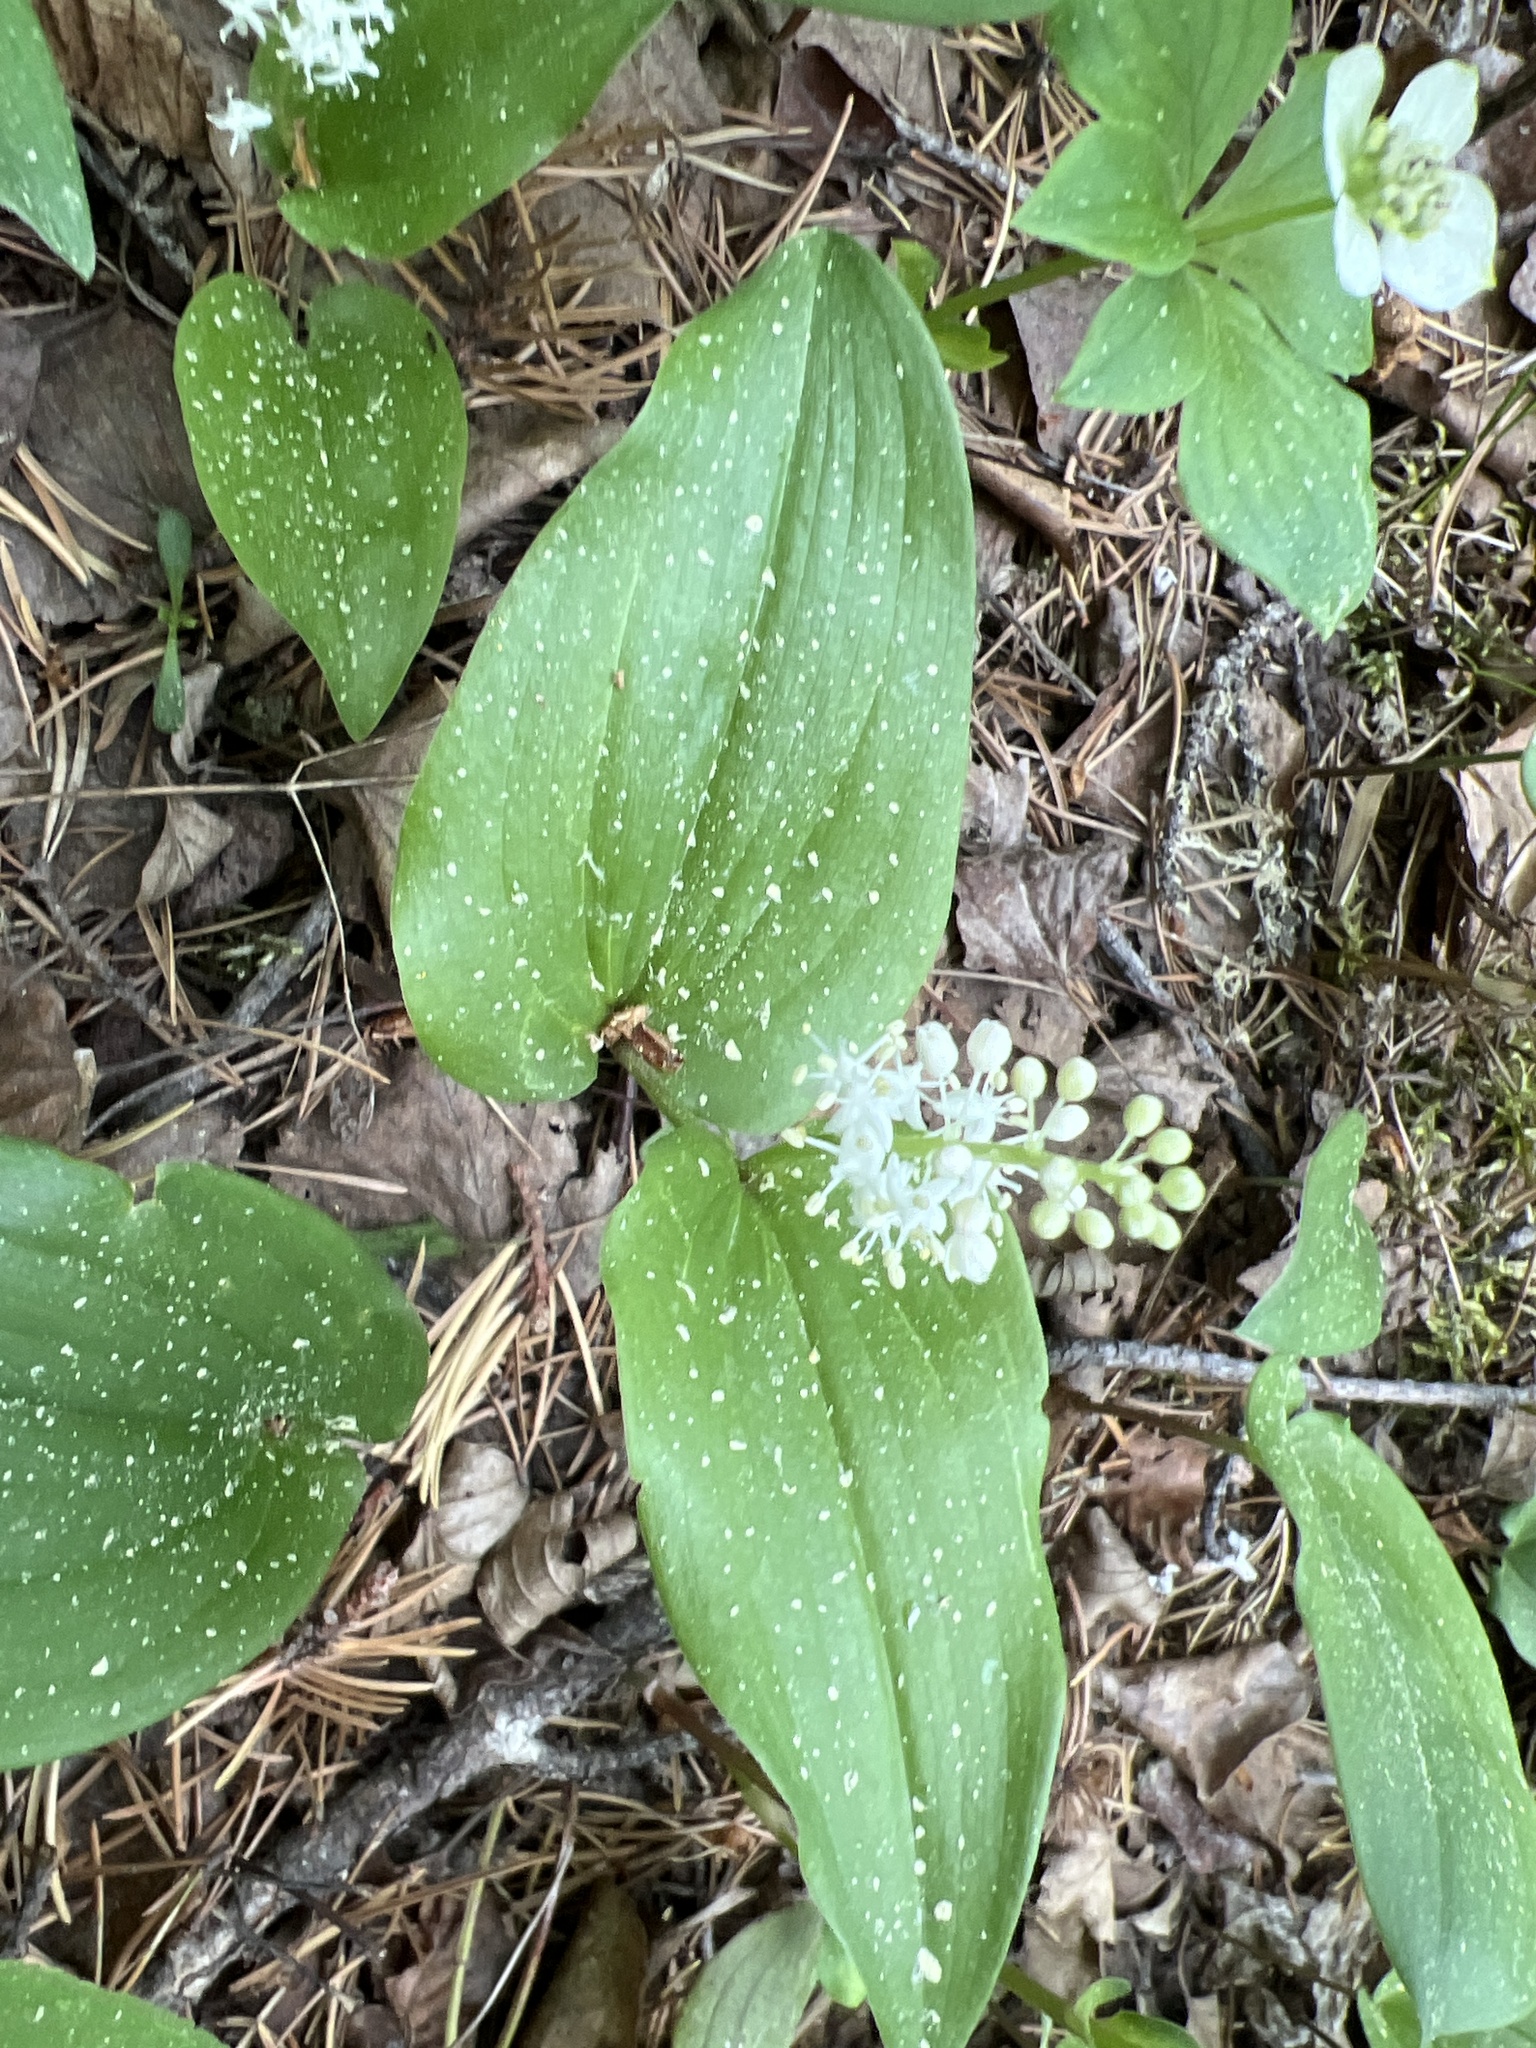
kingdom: Plantae
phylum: Tracheophyta
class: Liliopsida
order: Asparagales
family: Asparagaceae
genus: Maianthemum
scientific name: Maianthemum canadense
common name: False lily-of-the-valley
